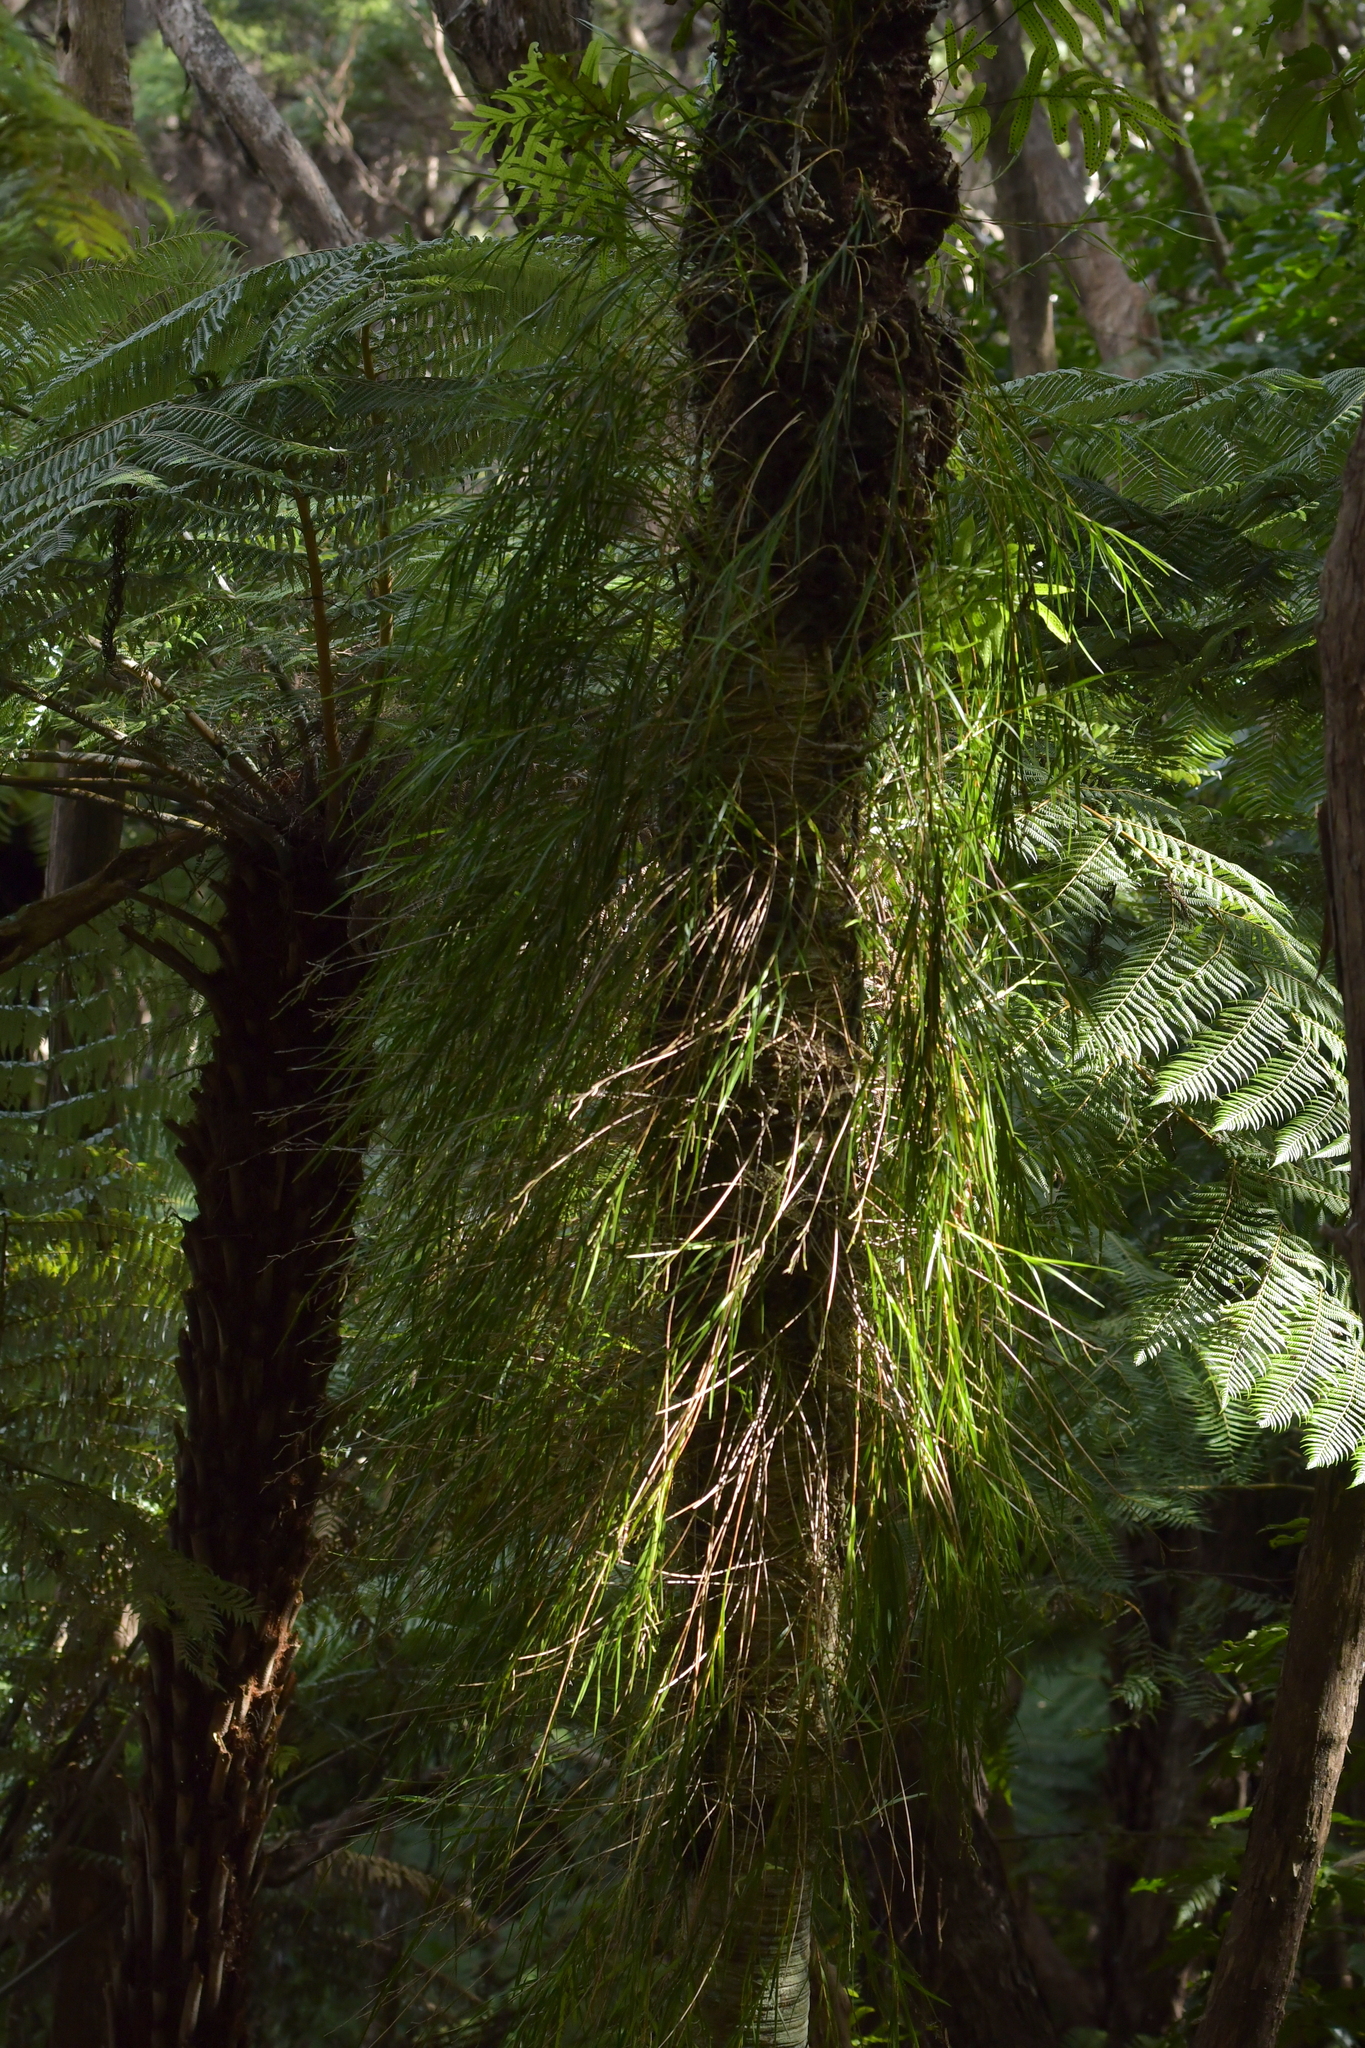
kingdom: Plantae
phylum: Tracheophyta
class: Liliopsida
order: Asparagales
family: Orchidaceae
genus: Earina
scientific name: Earina mucronata
